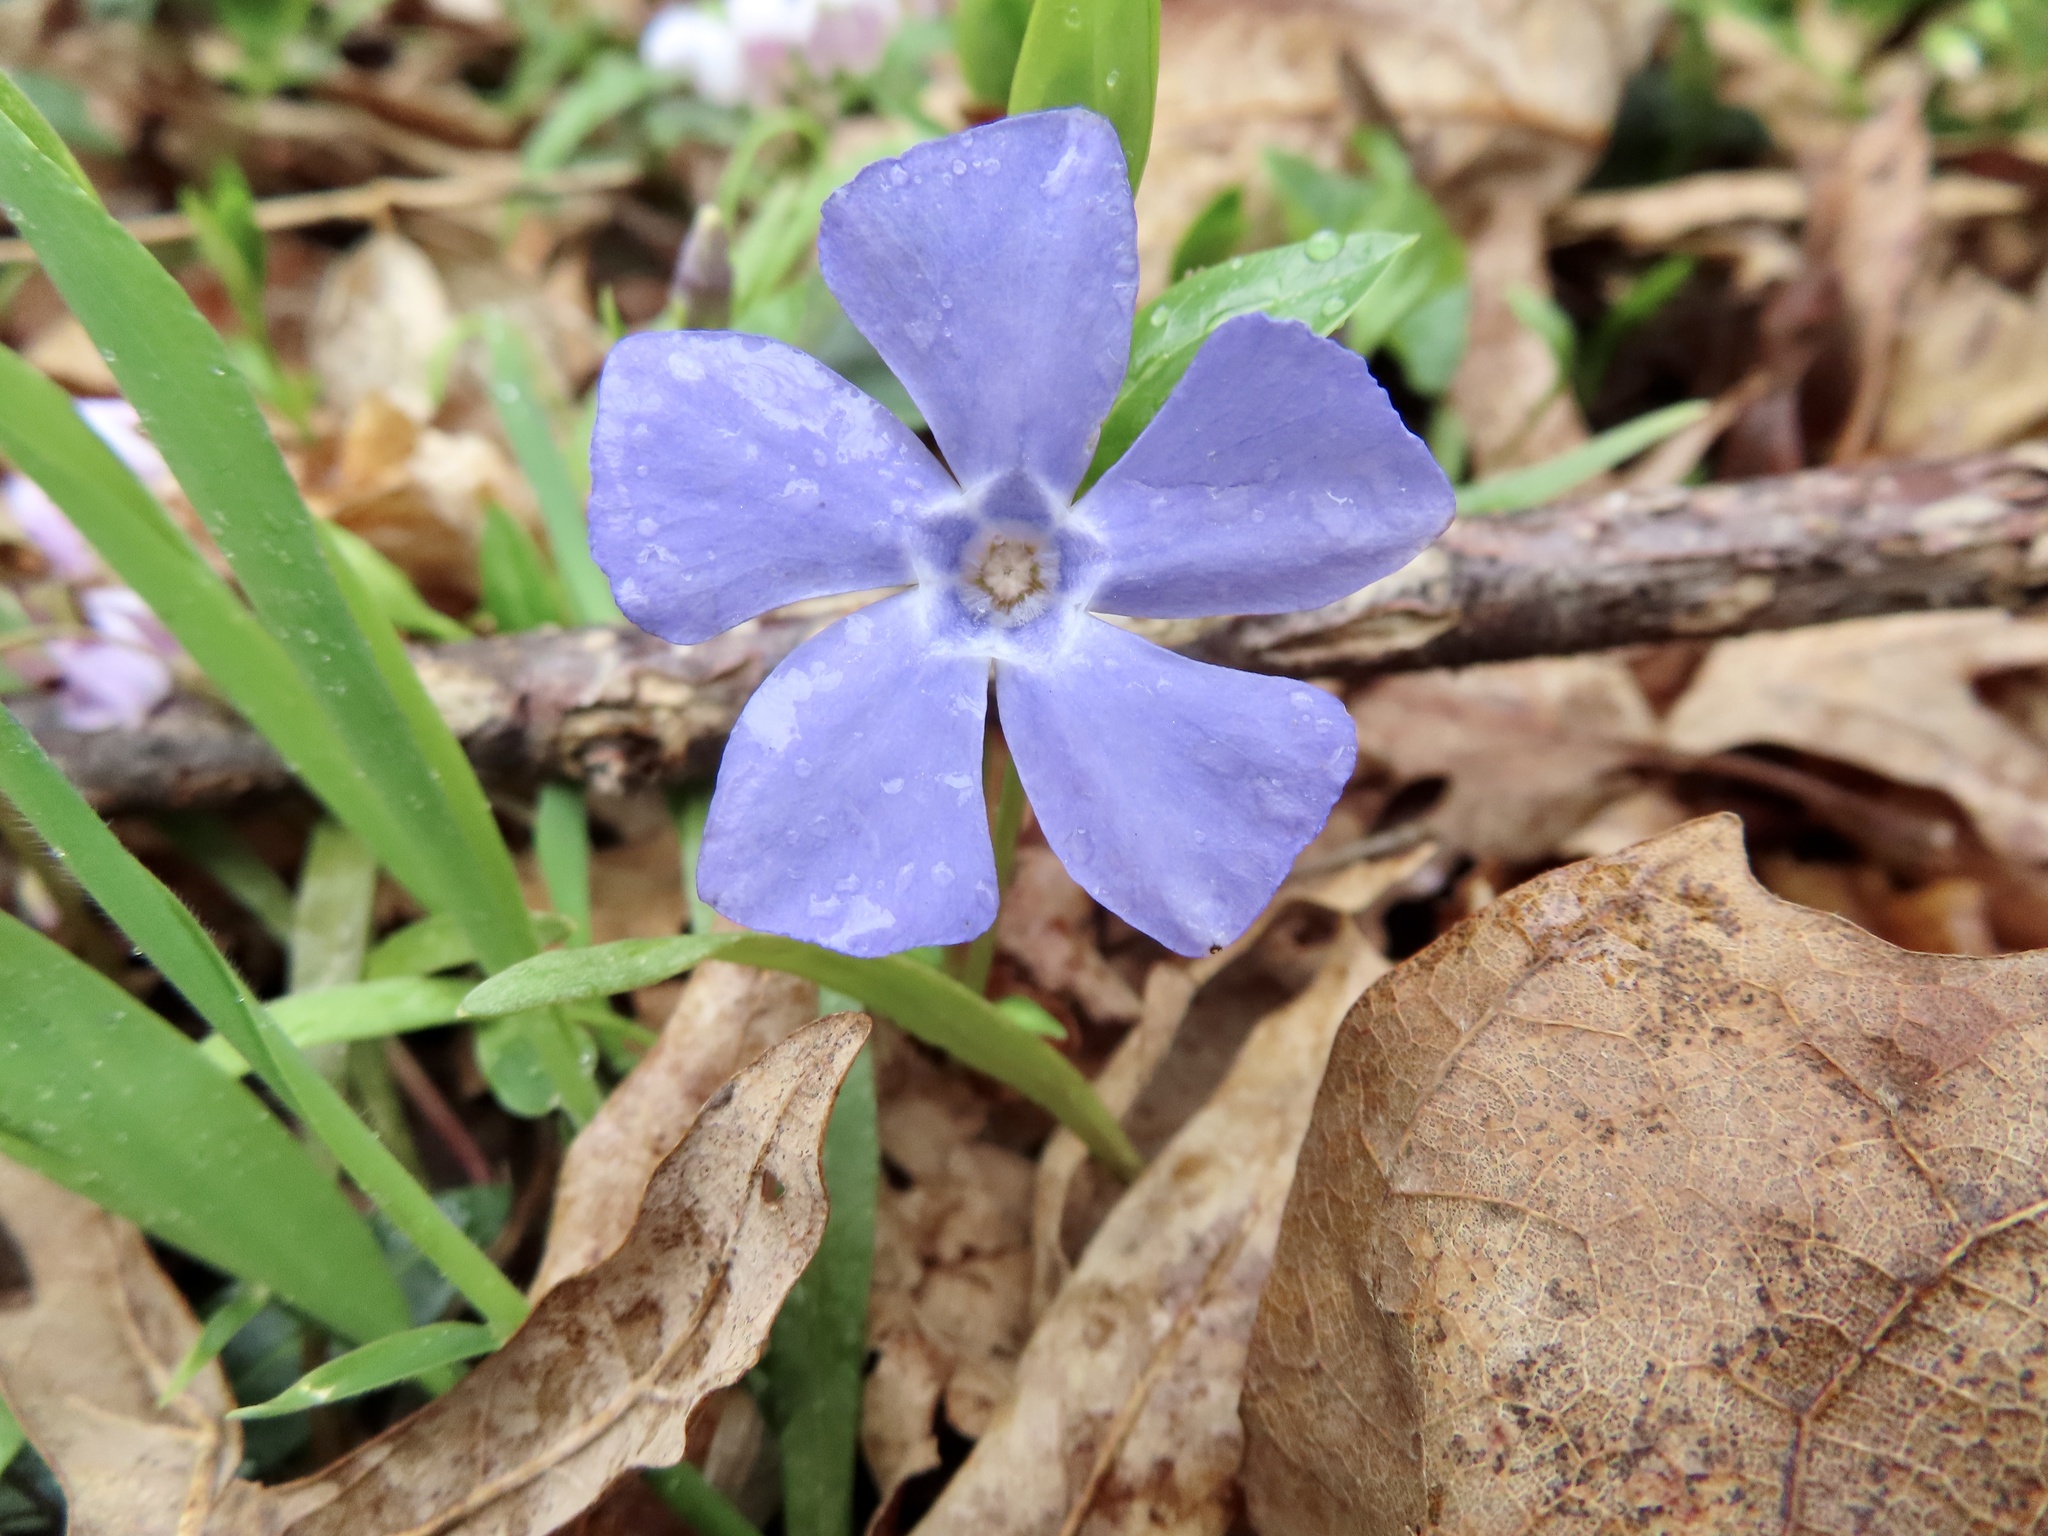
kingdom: Plantae
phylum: Tracheophyta
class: Magnoliopsida
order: Gentianales
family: Apocynaceae
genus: Vinca
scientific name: Vinca minor
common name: Lesser periwinkle
